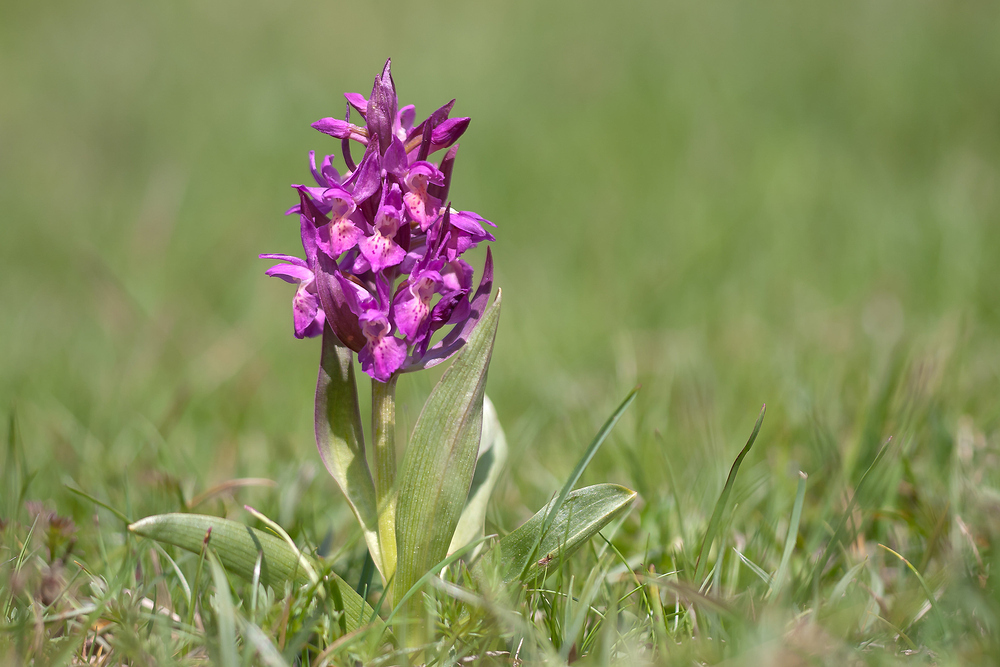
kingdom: Plantae
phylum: Tracheophyta
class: Liliopsida
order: Asparagales
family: Orchidaceae
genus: Dactylorhiza
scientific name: Dactylorhiza sambucina
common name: Elder-flowered orchid
